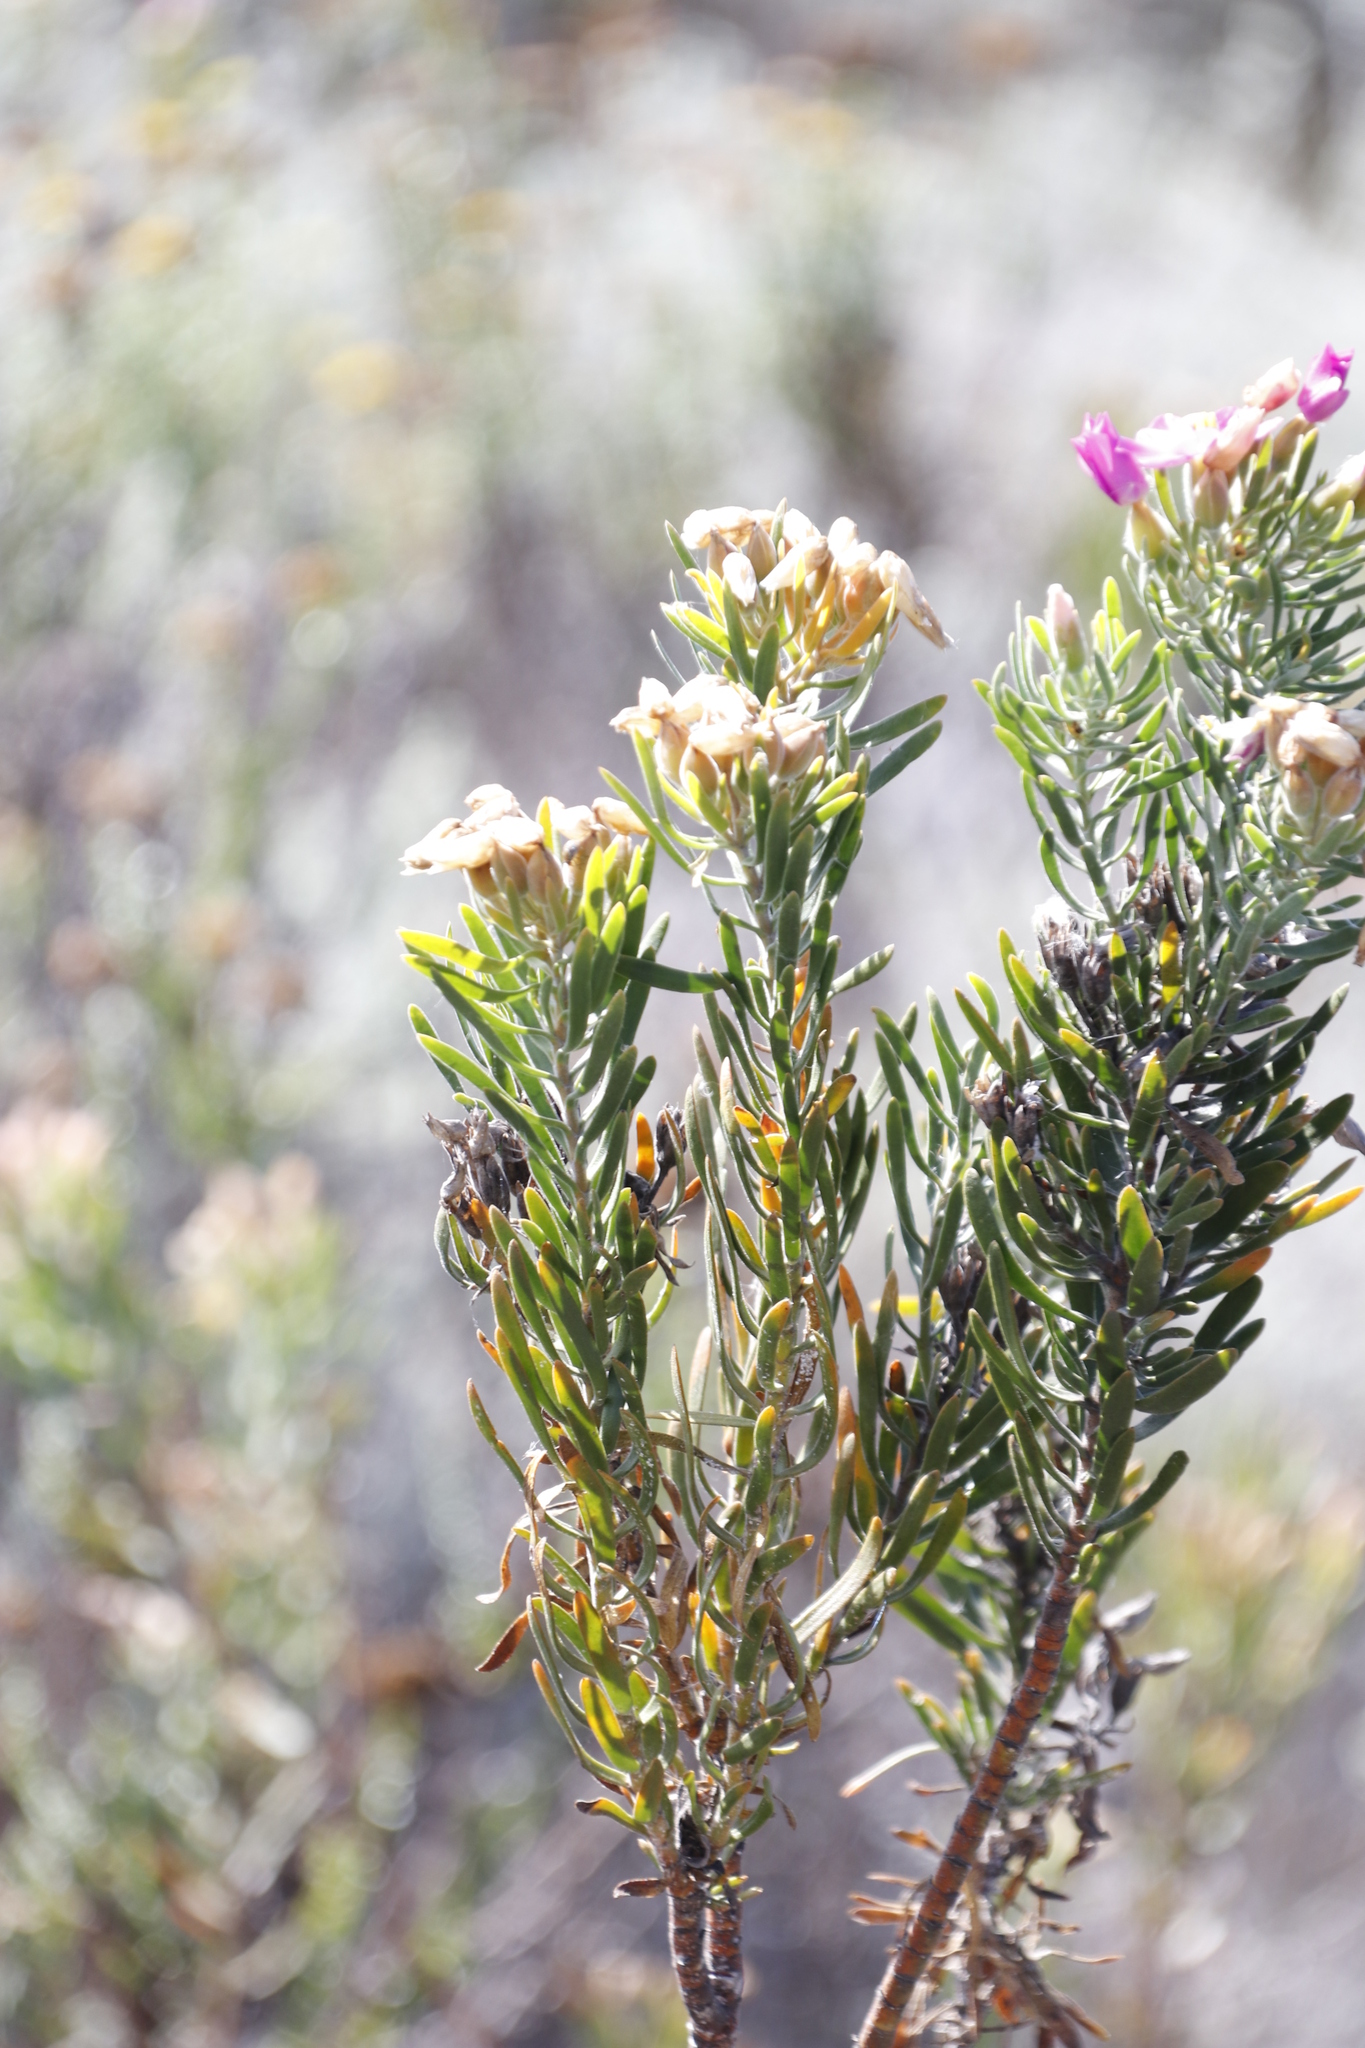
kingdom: Plantae
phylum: Tracheophyta
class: Magnoliopsida
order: Gentianales
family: Gentianaceae
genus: Orphium
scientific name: Orphium frutescens
